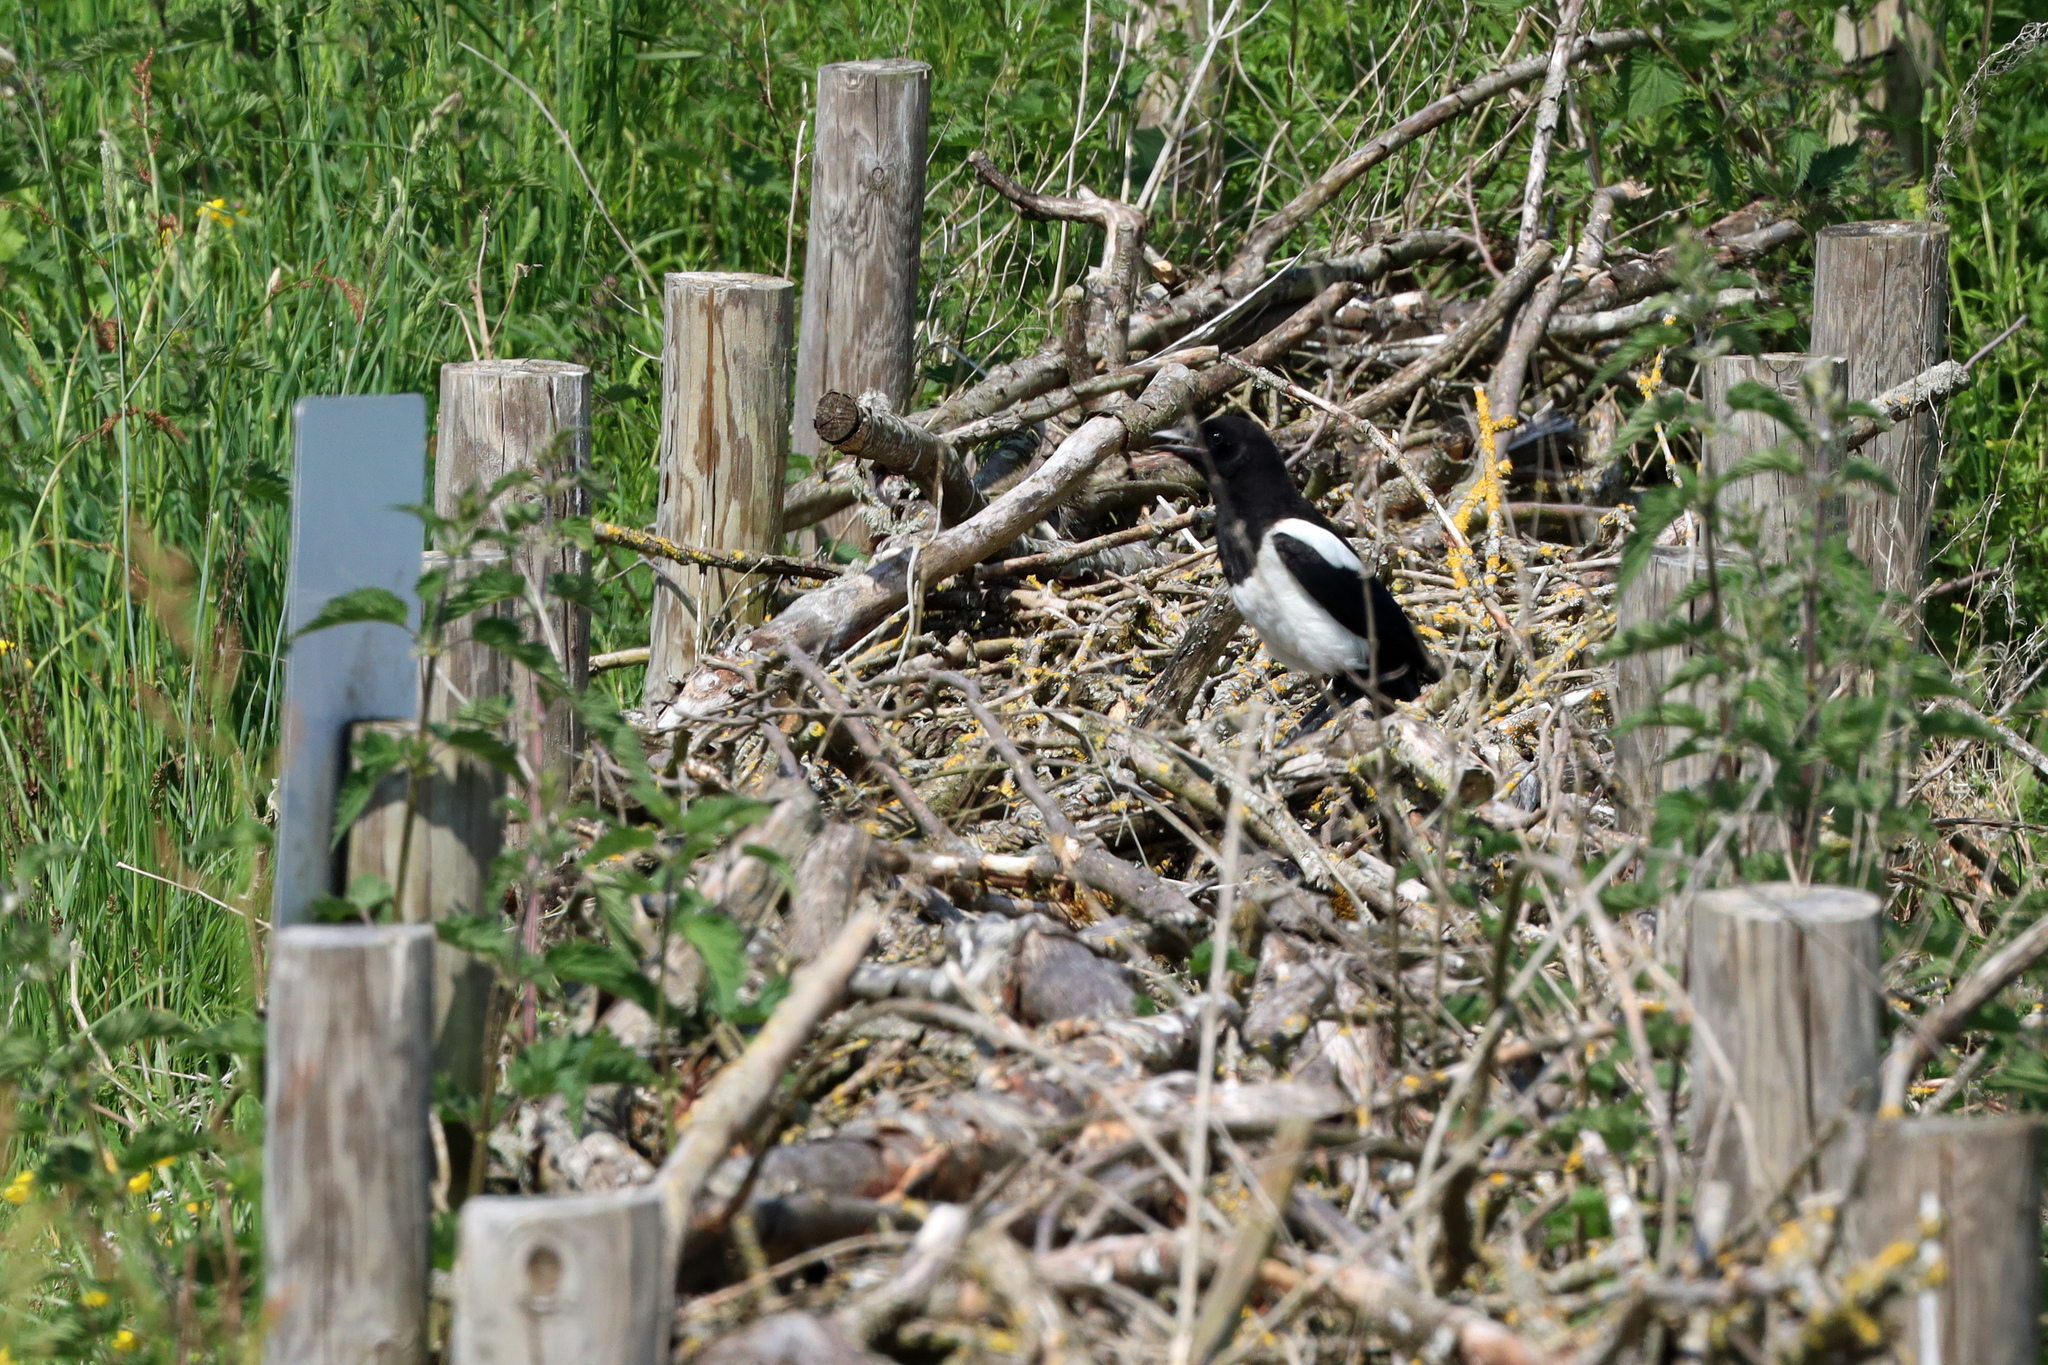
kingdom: Animalia
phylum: Chordata
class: Aves
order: Passeriformes
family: Corvidae
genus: Pica
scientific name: Pica pica
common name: Eurasian magpie
